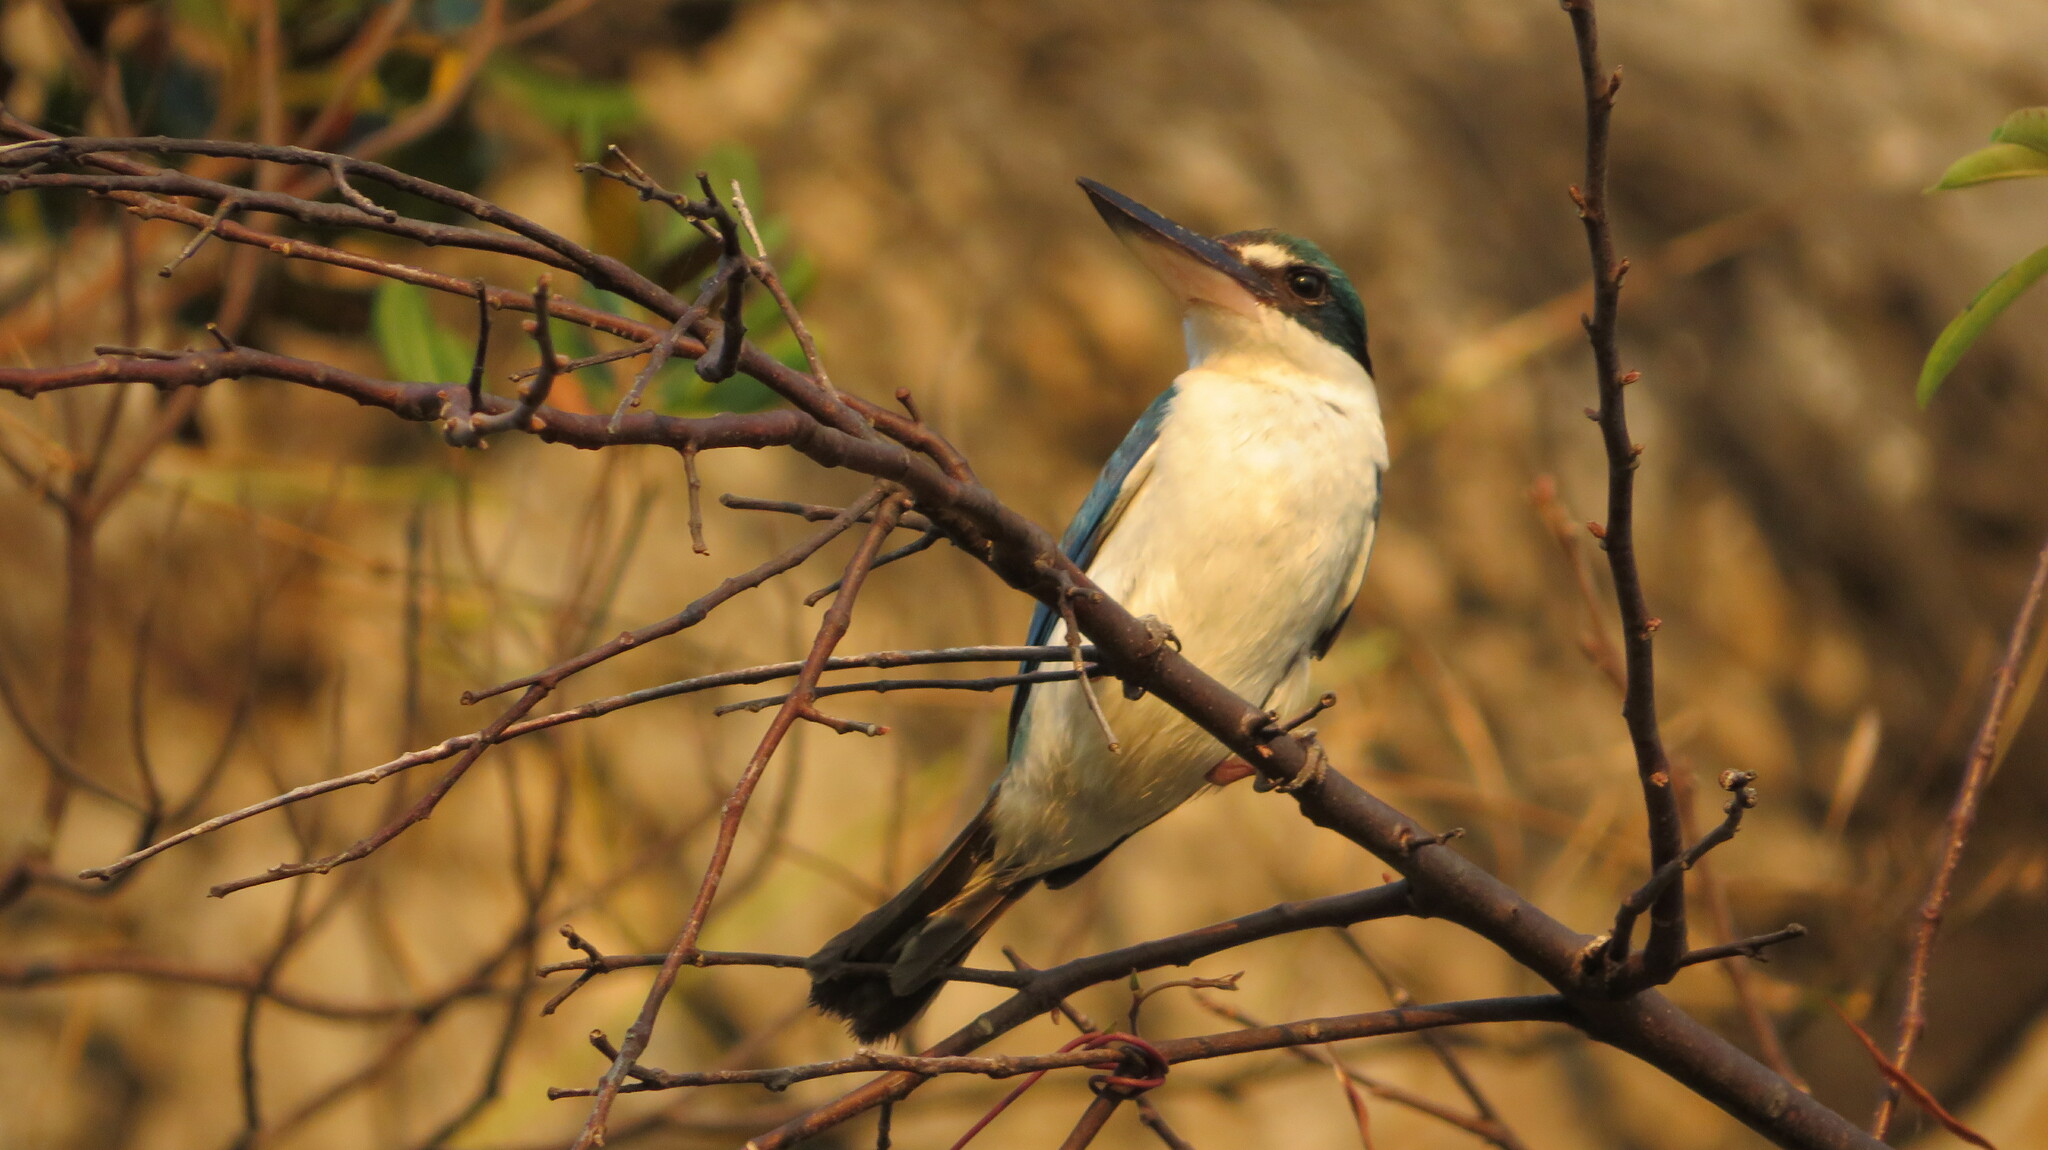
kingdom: Animalia
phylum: Chordata
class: Aves
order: Coraciiformes
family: Alcedinidae
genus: Todiramphus
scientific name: Todiramphus chloris
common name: Collared kingfisher
